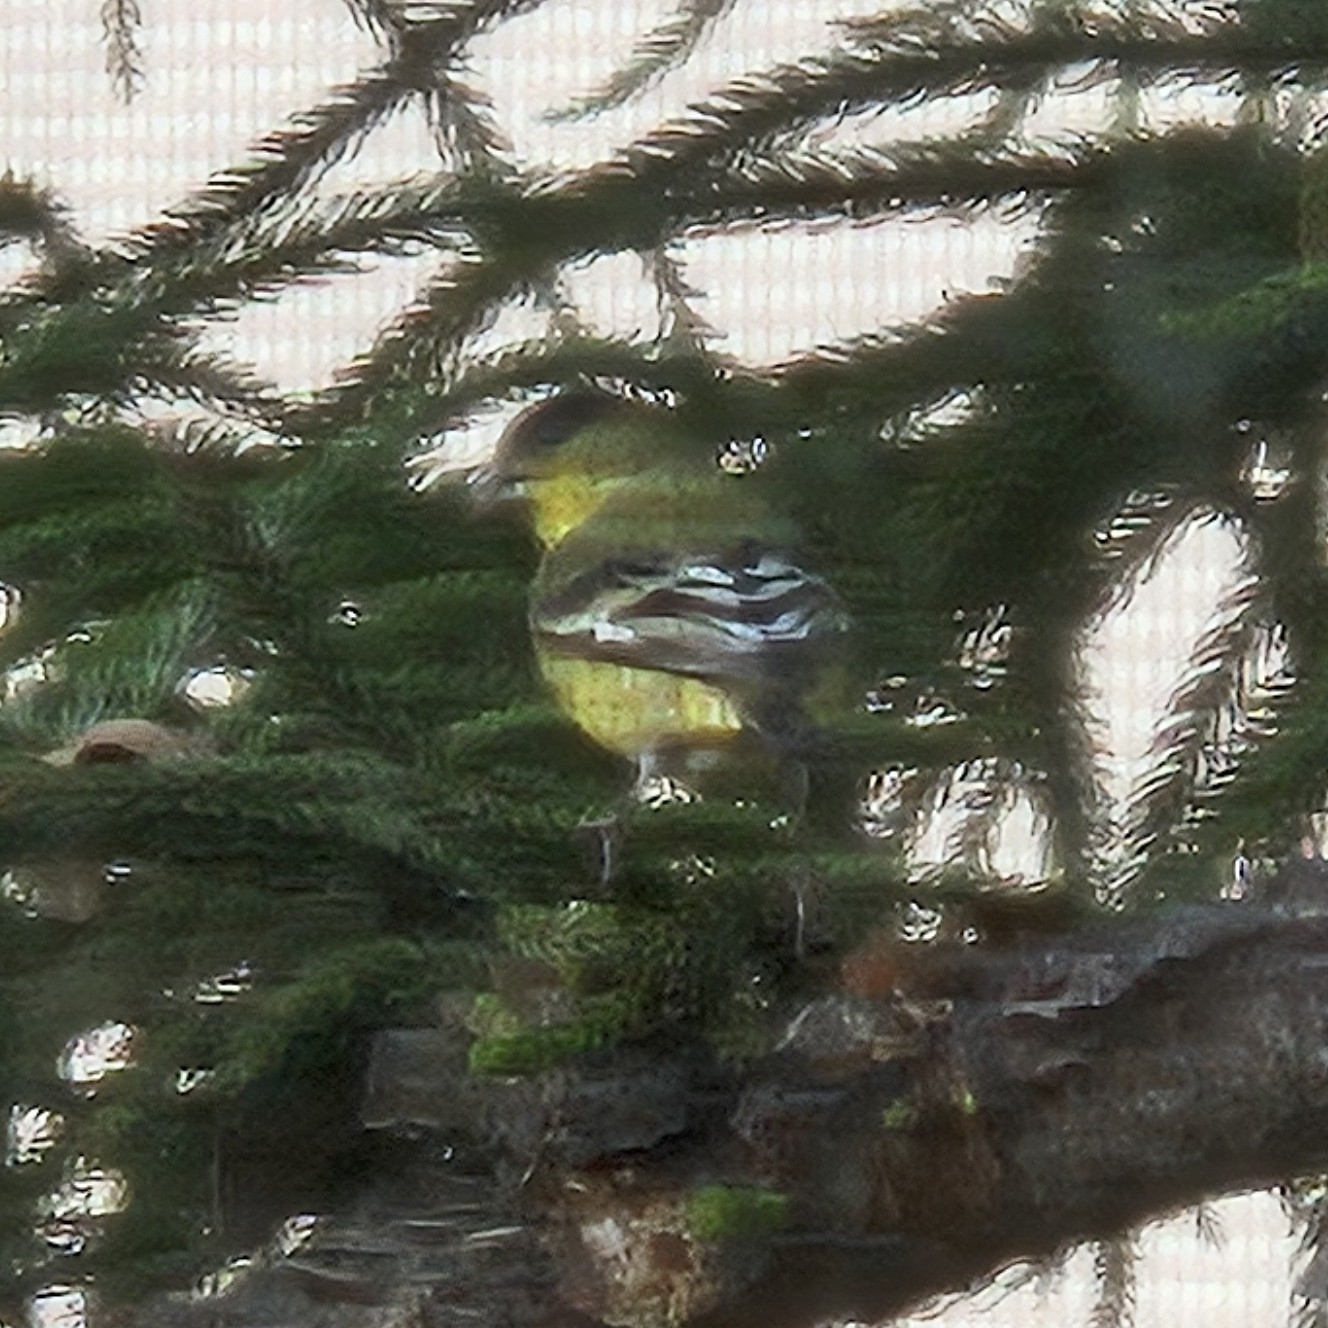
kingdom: Animalia
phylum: Chordata
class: Aves
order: Passeriformes
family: Fringillidae
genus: Spinus
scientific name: Spinus psaltria
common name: Lesser goldfinch
